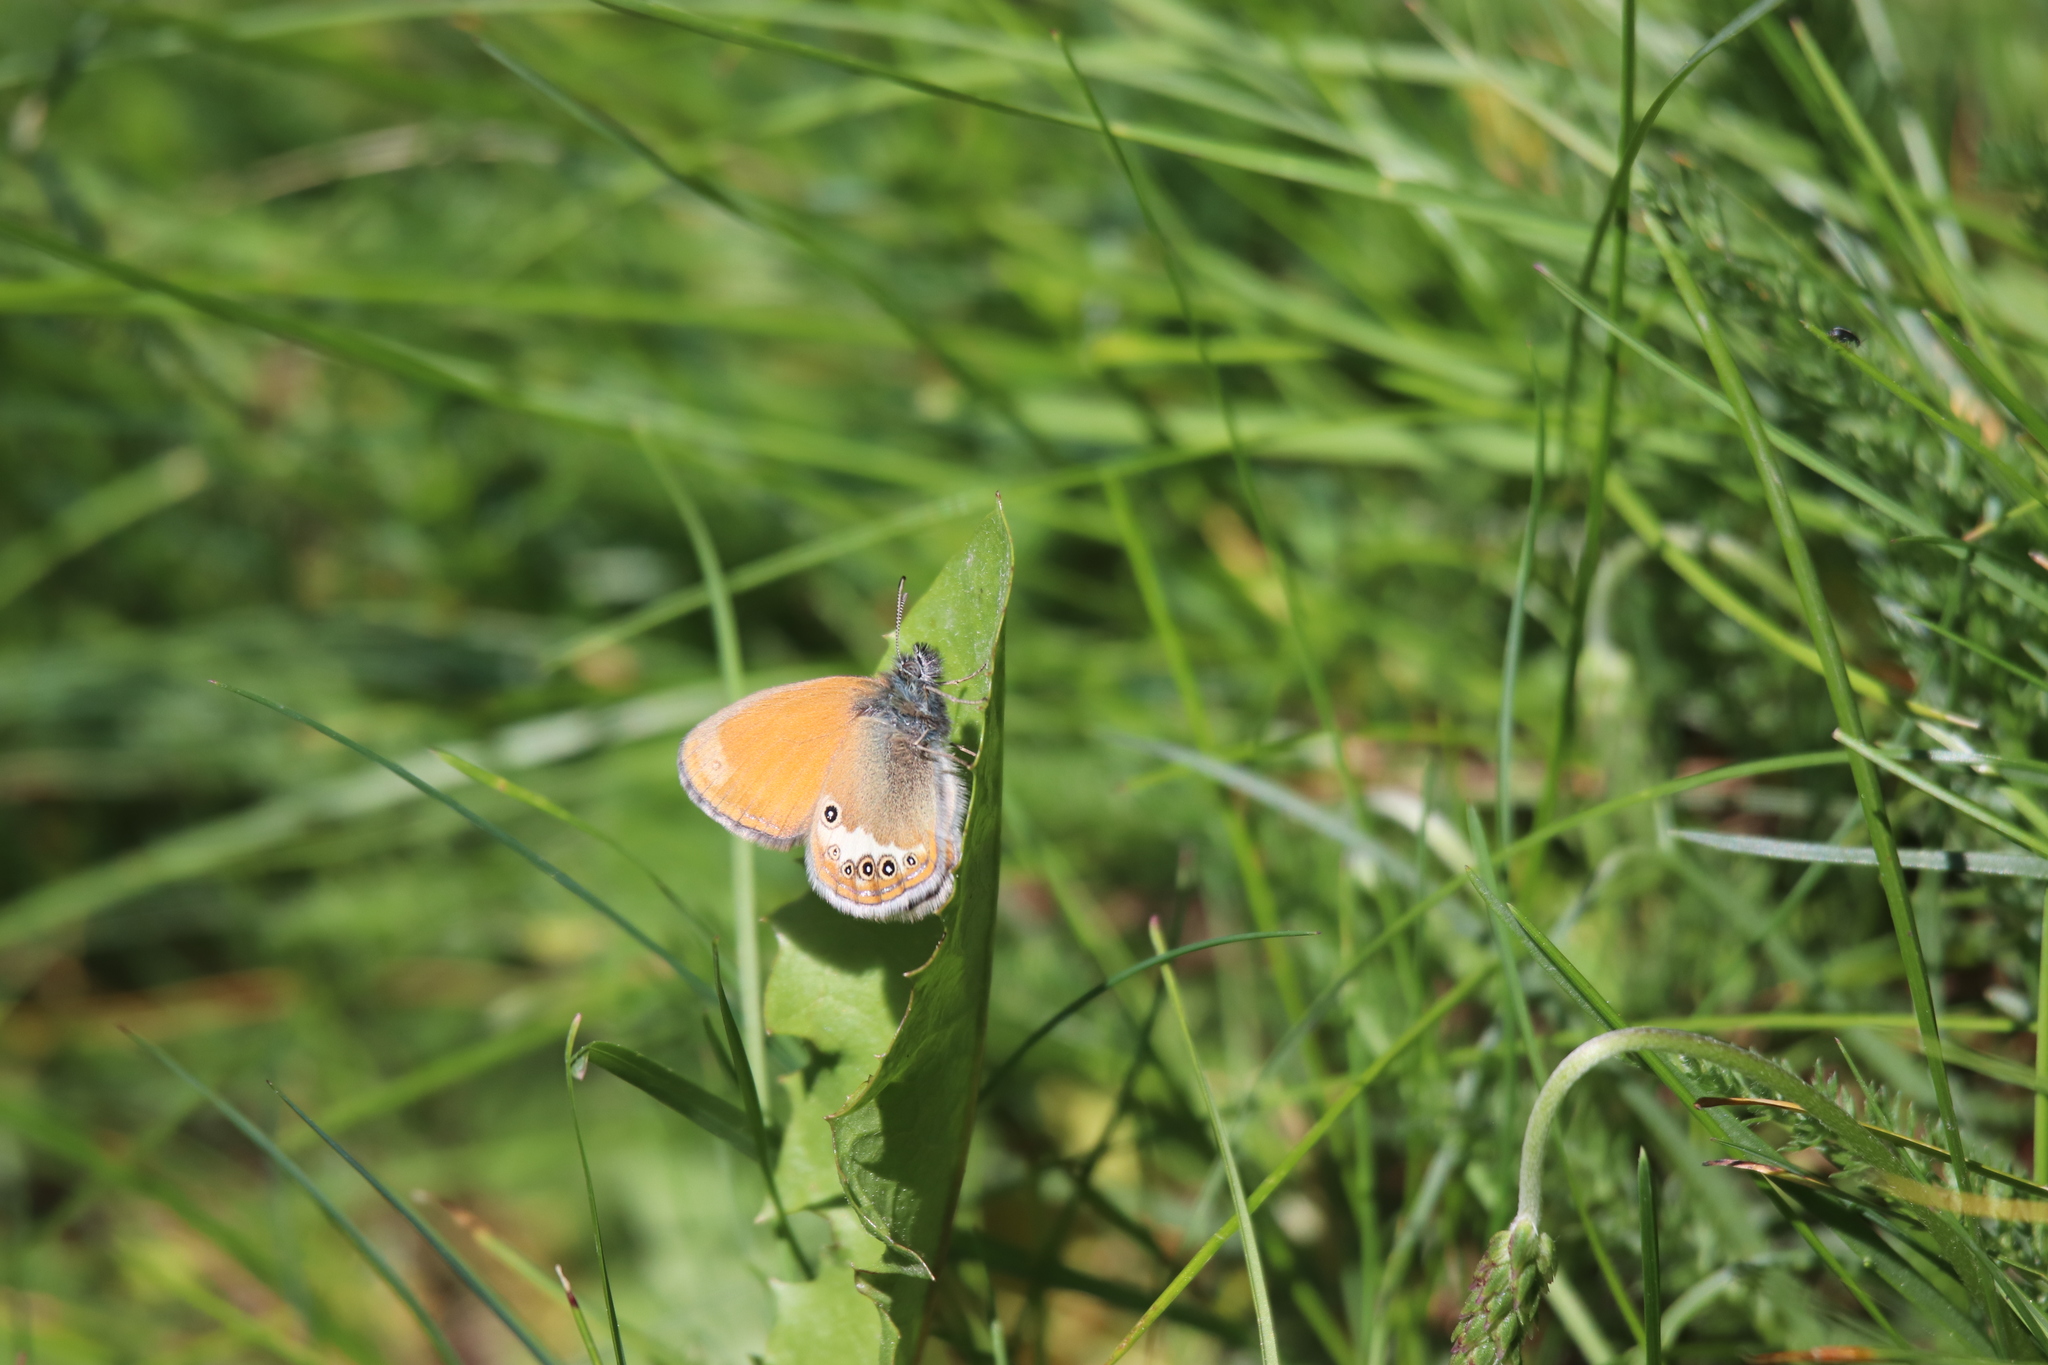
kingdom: Animalia
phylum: Arthropoda
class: Insecta
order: Lepidoptera
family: Nymphalidae
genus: Coenonympha
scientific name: Coenonympha arcania
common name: Pearly heath
